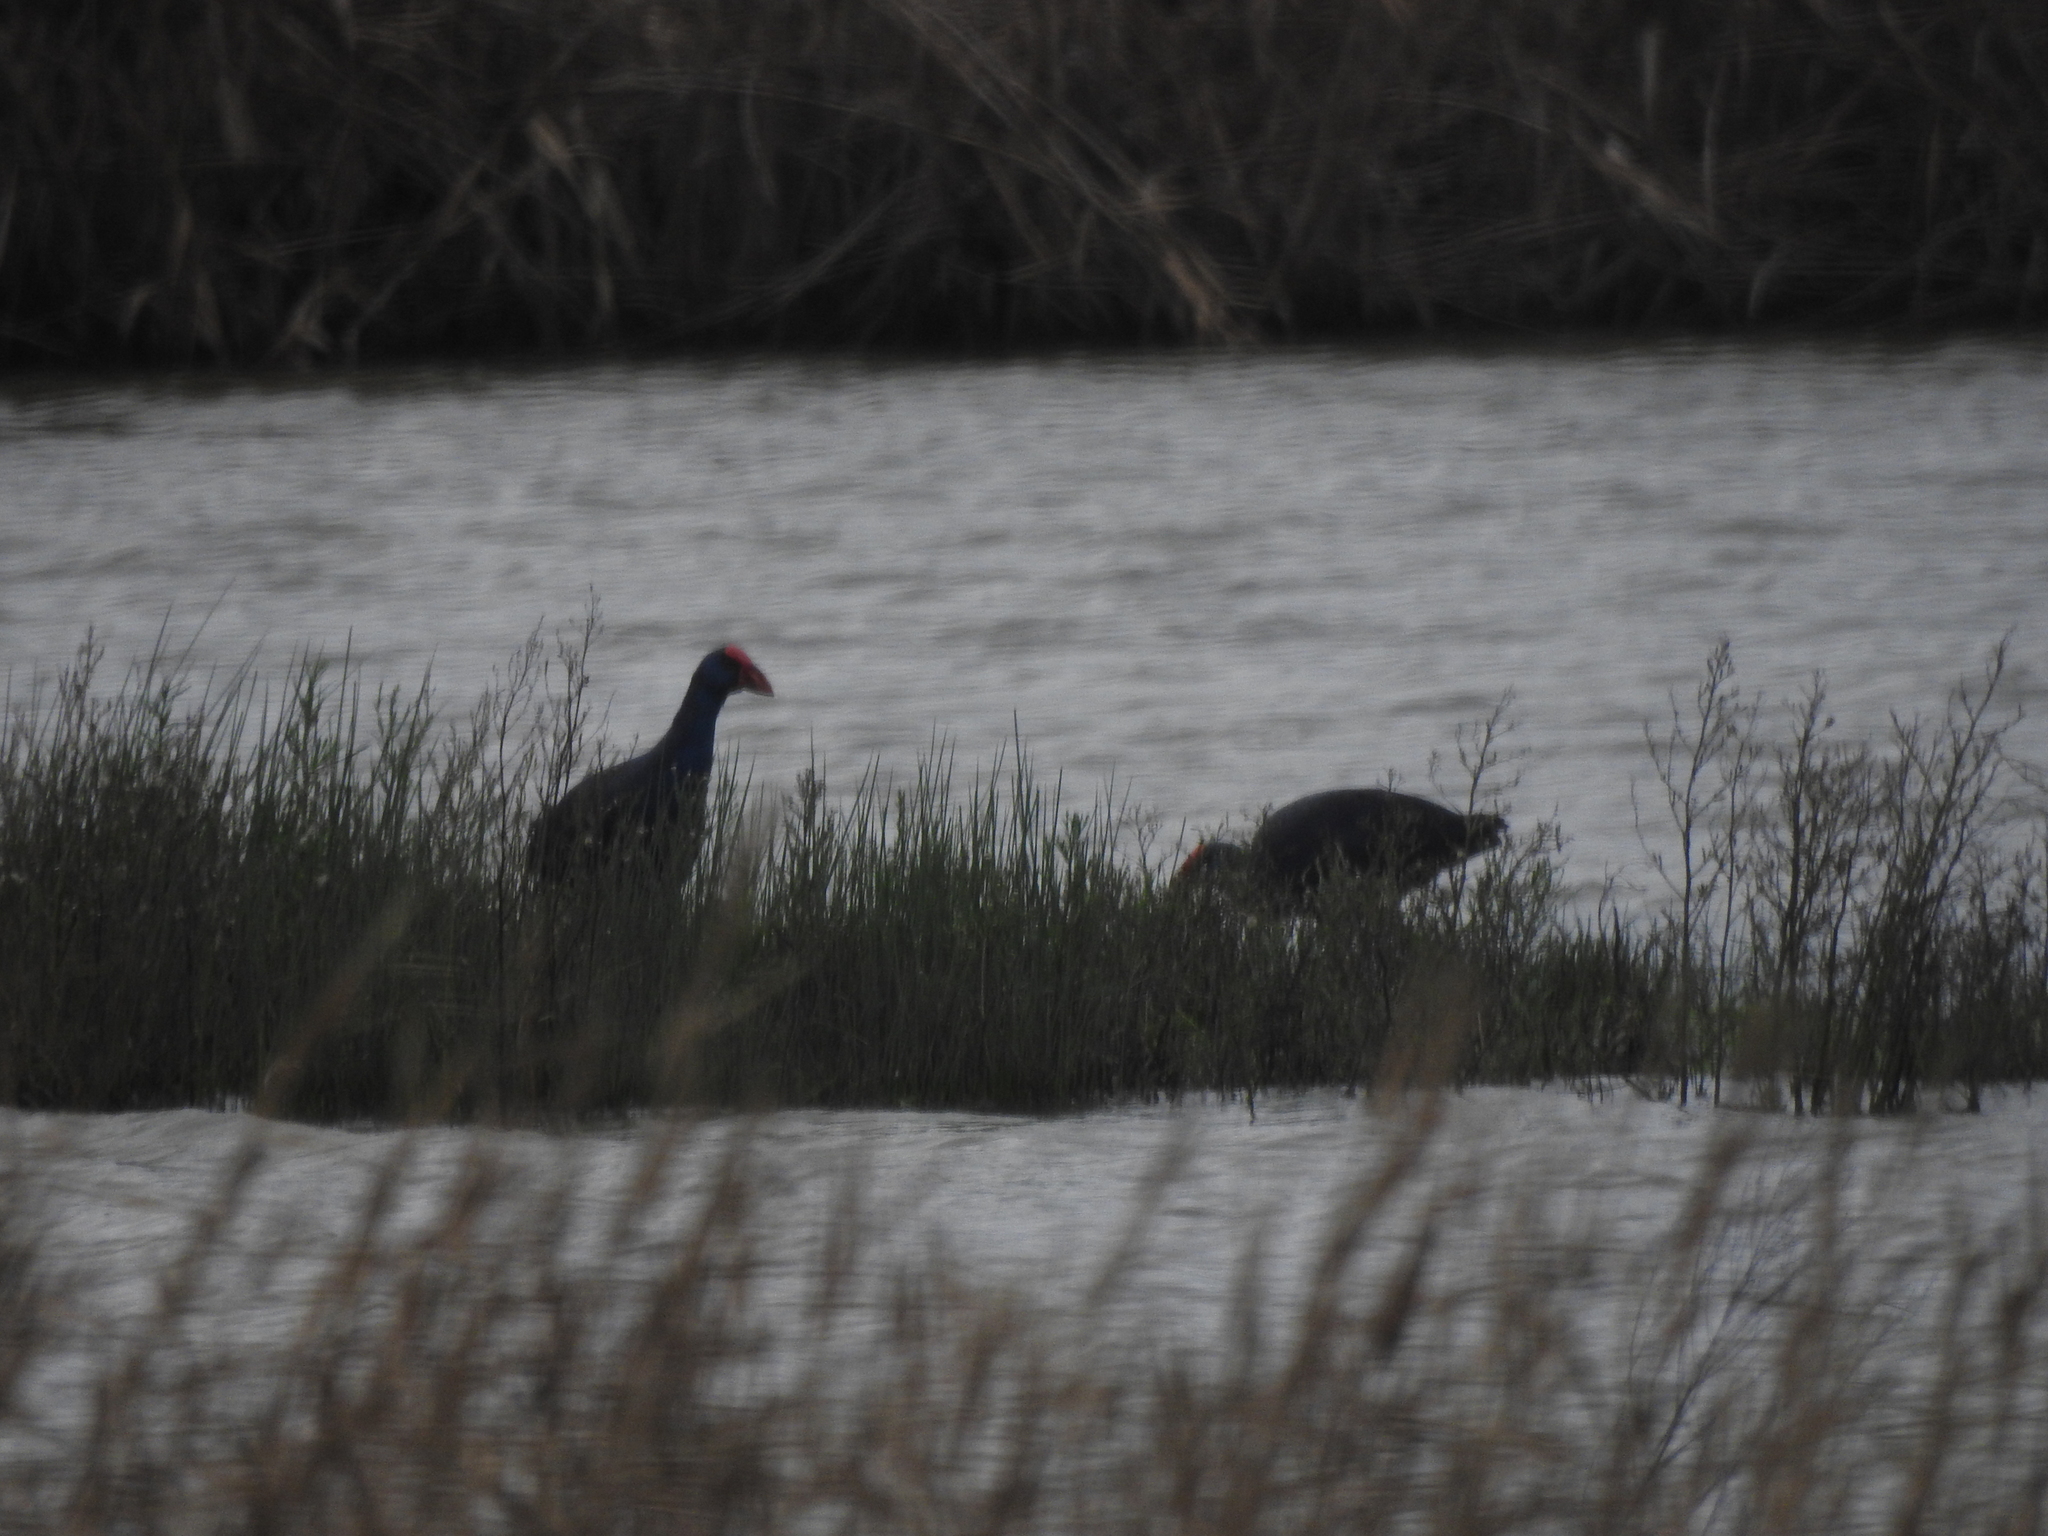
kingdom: Animalia
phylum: Chordata
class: Aves
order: Gruiformes
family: Rallidae
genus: Porphyrio
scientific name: Porphyrio porphyrio
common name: Purple swamphen
